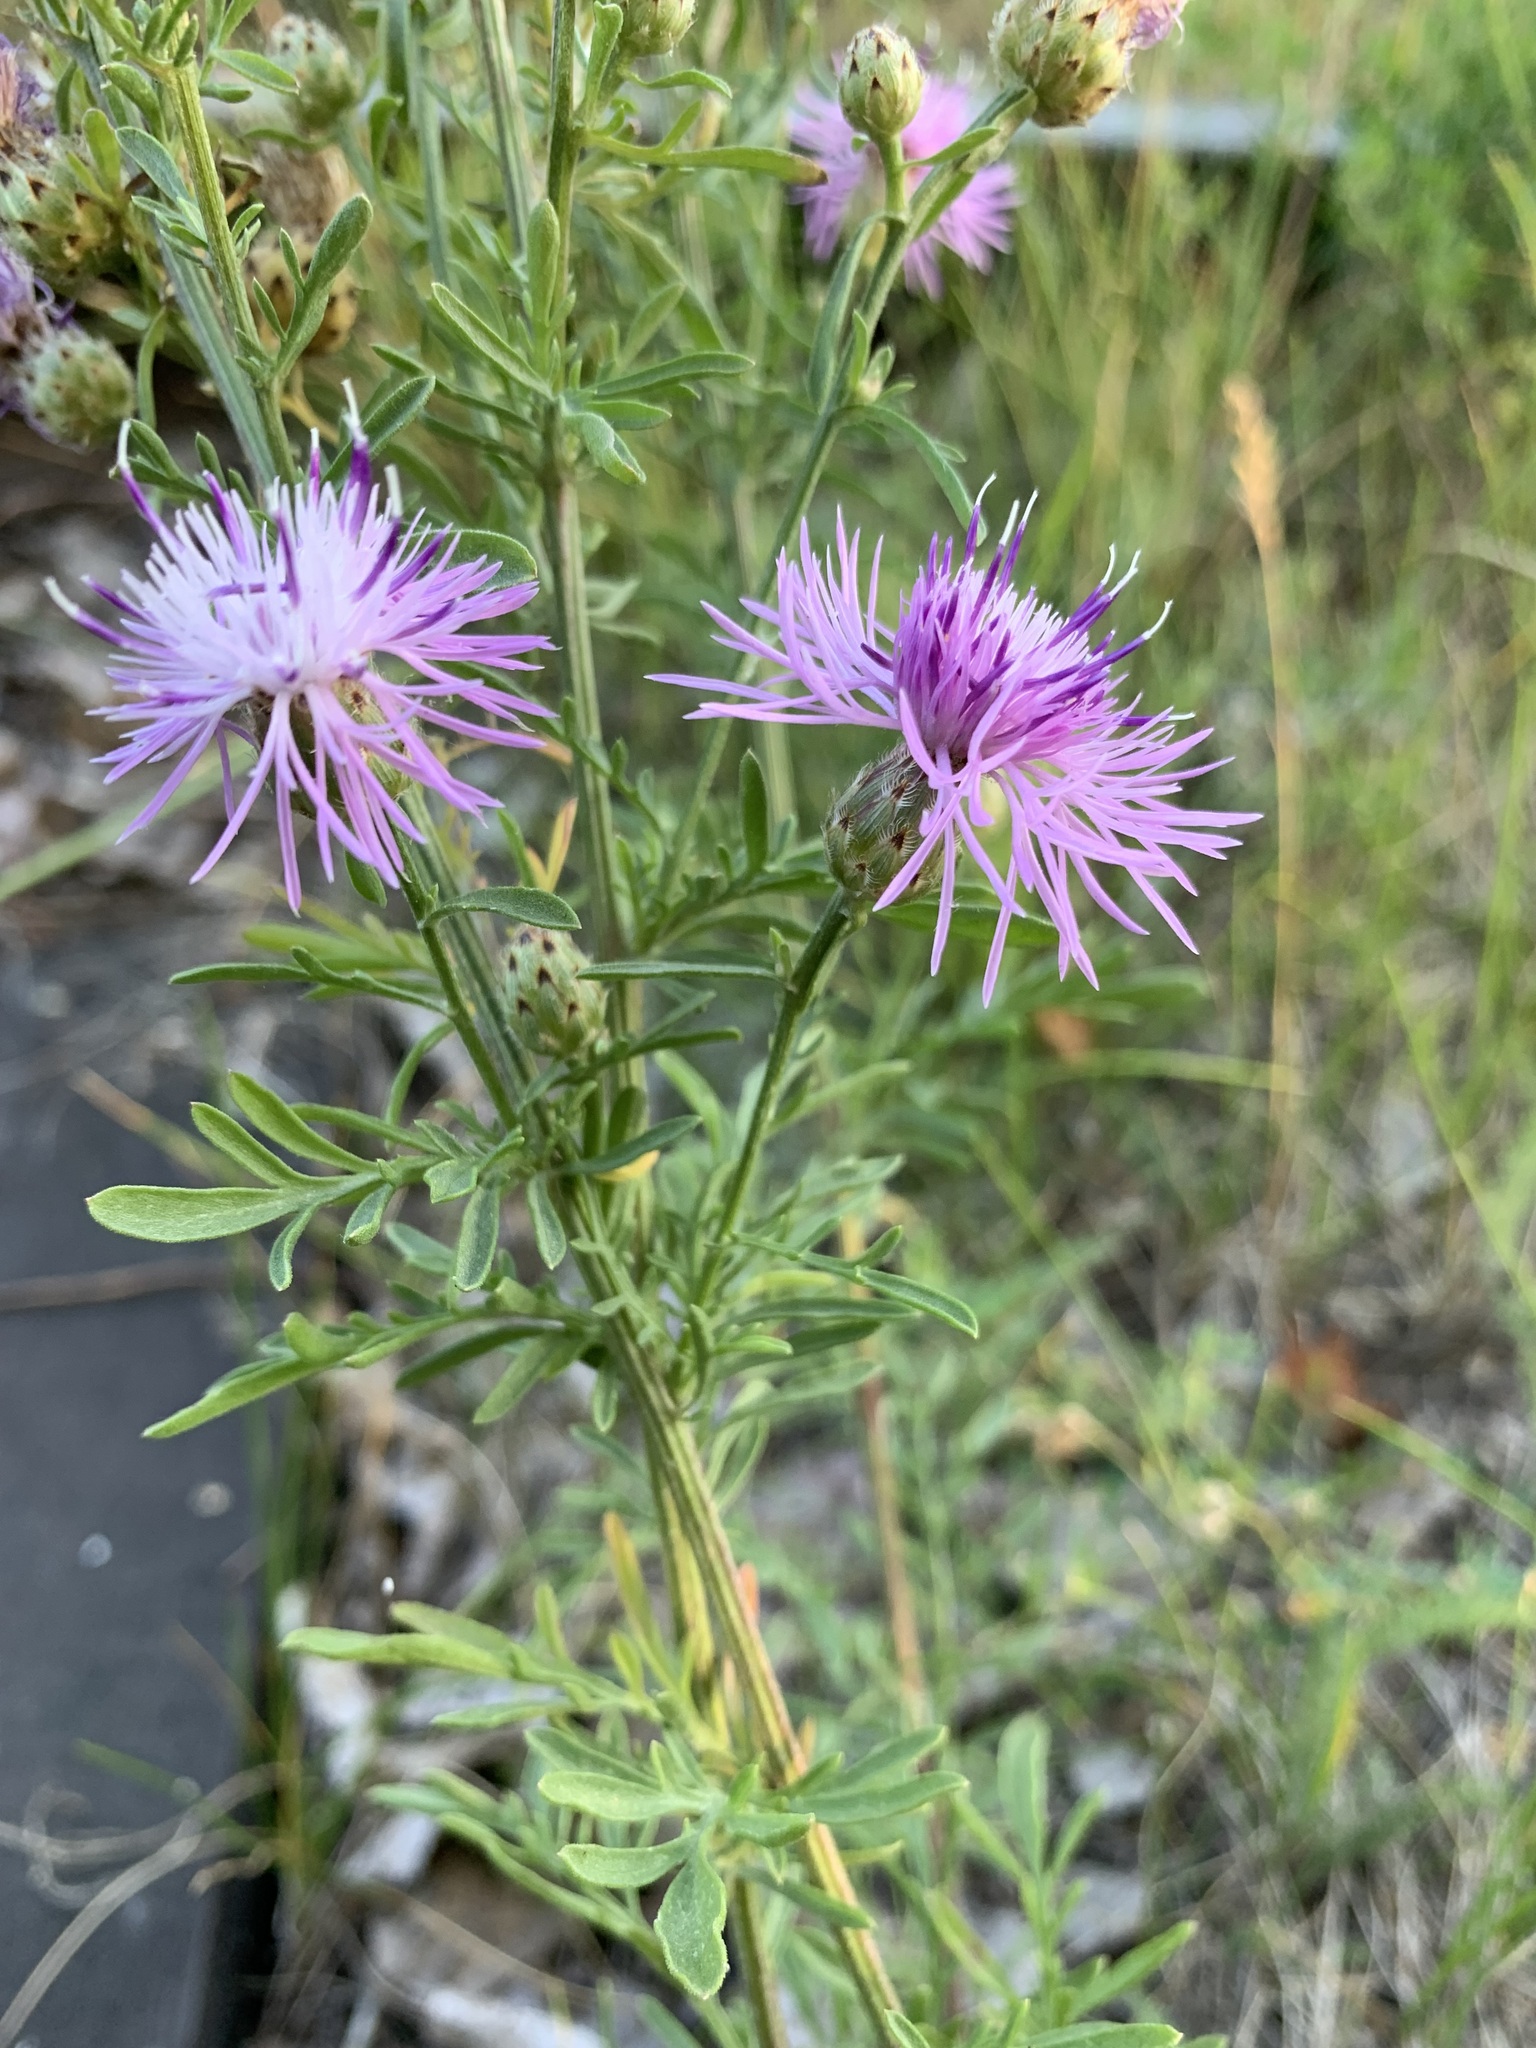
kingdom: Plantae
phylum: Tracheophyta
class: Magnoliopsida
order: Asterales
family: Asteraceae
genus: Centaurea
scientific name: Centaurea stoebe
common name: Spotted knapweed
